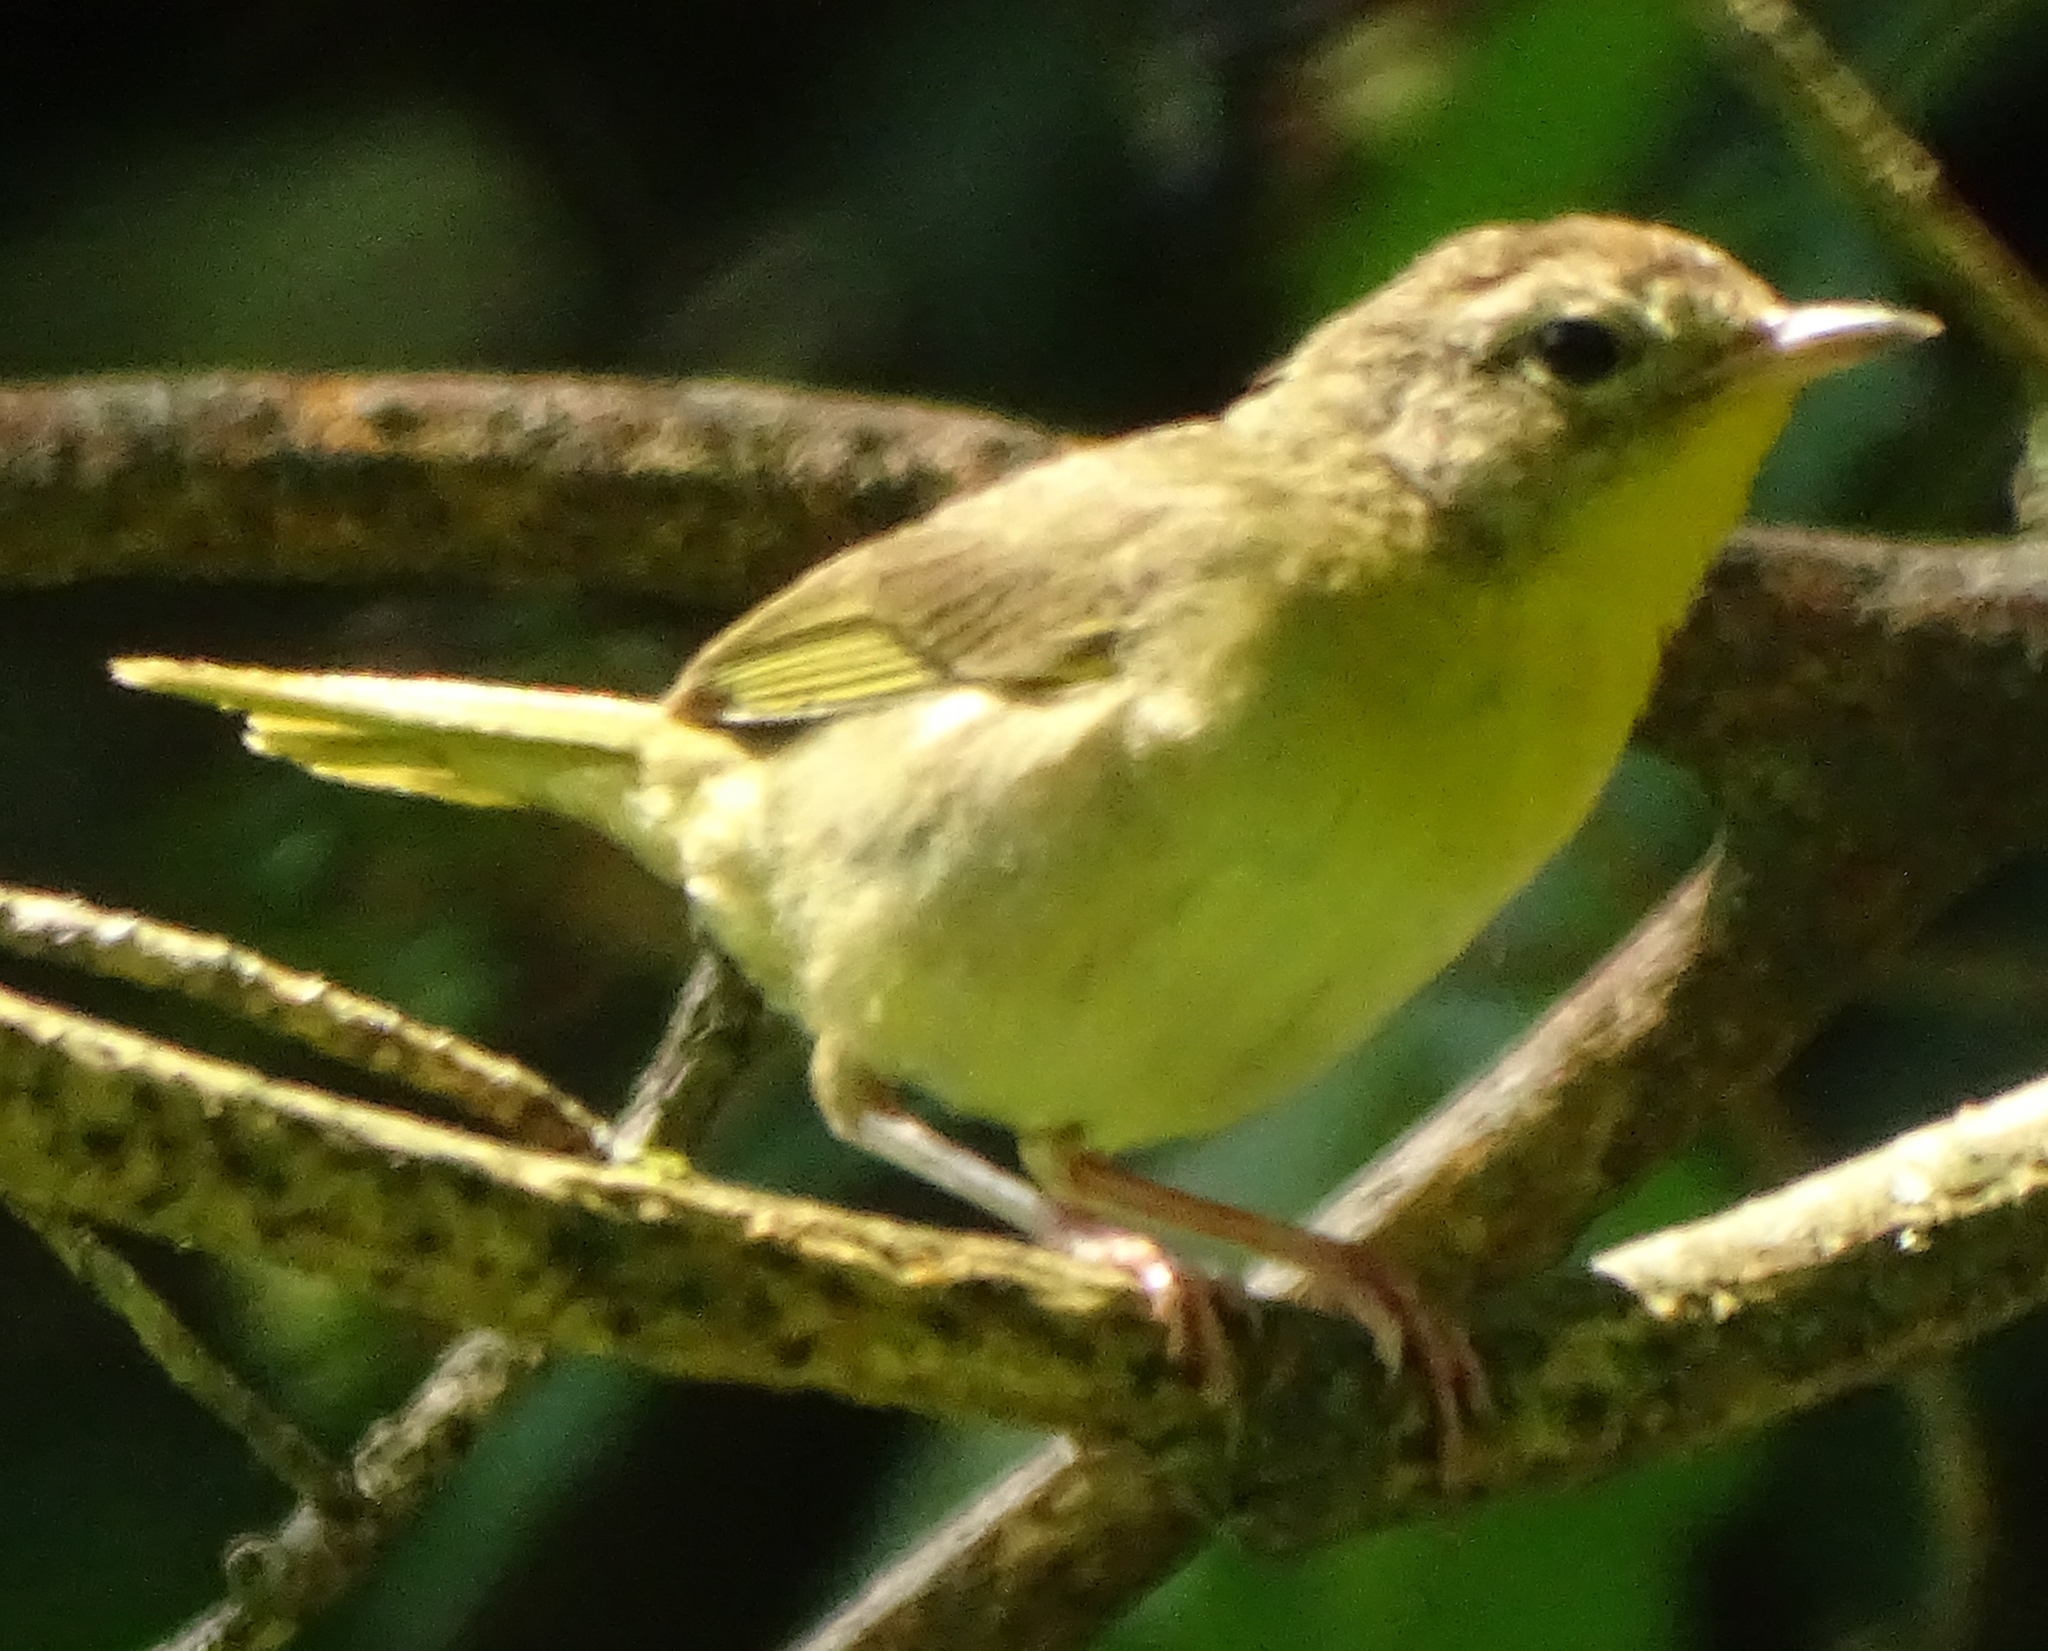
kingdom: Animalia
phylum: Chordata
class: Aves
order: Passeriformes
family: Parulidae
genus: Geothlypis
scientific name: Geothlypis trichas
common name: Common yellowthroat
